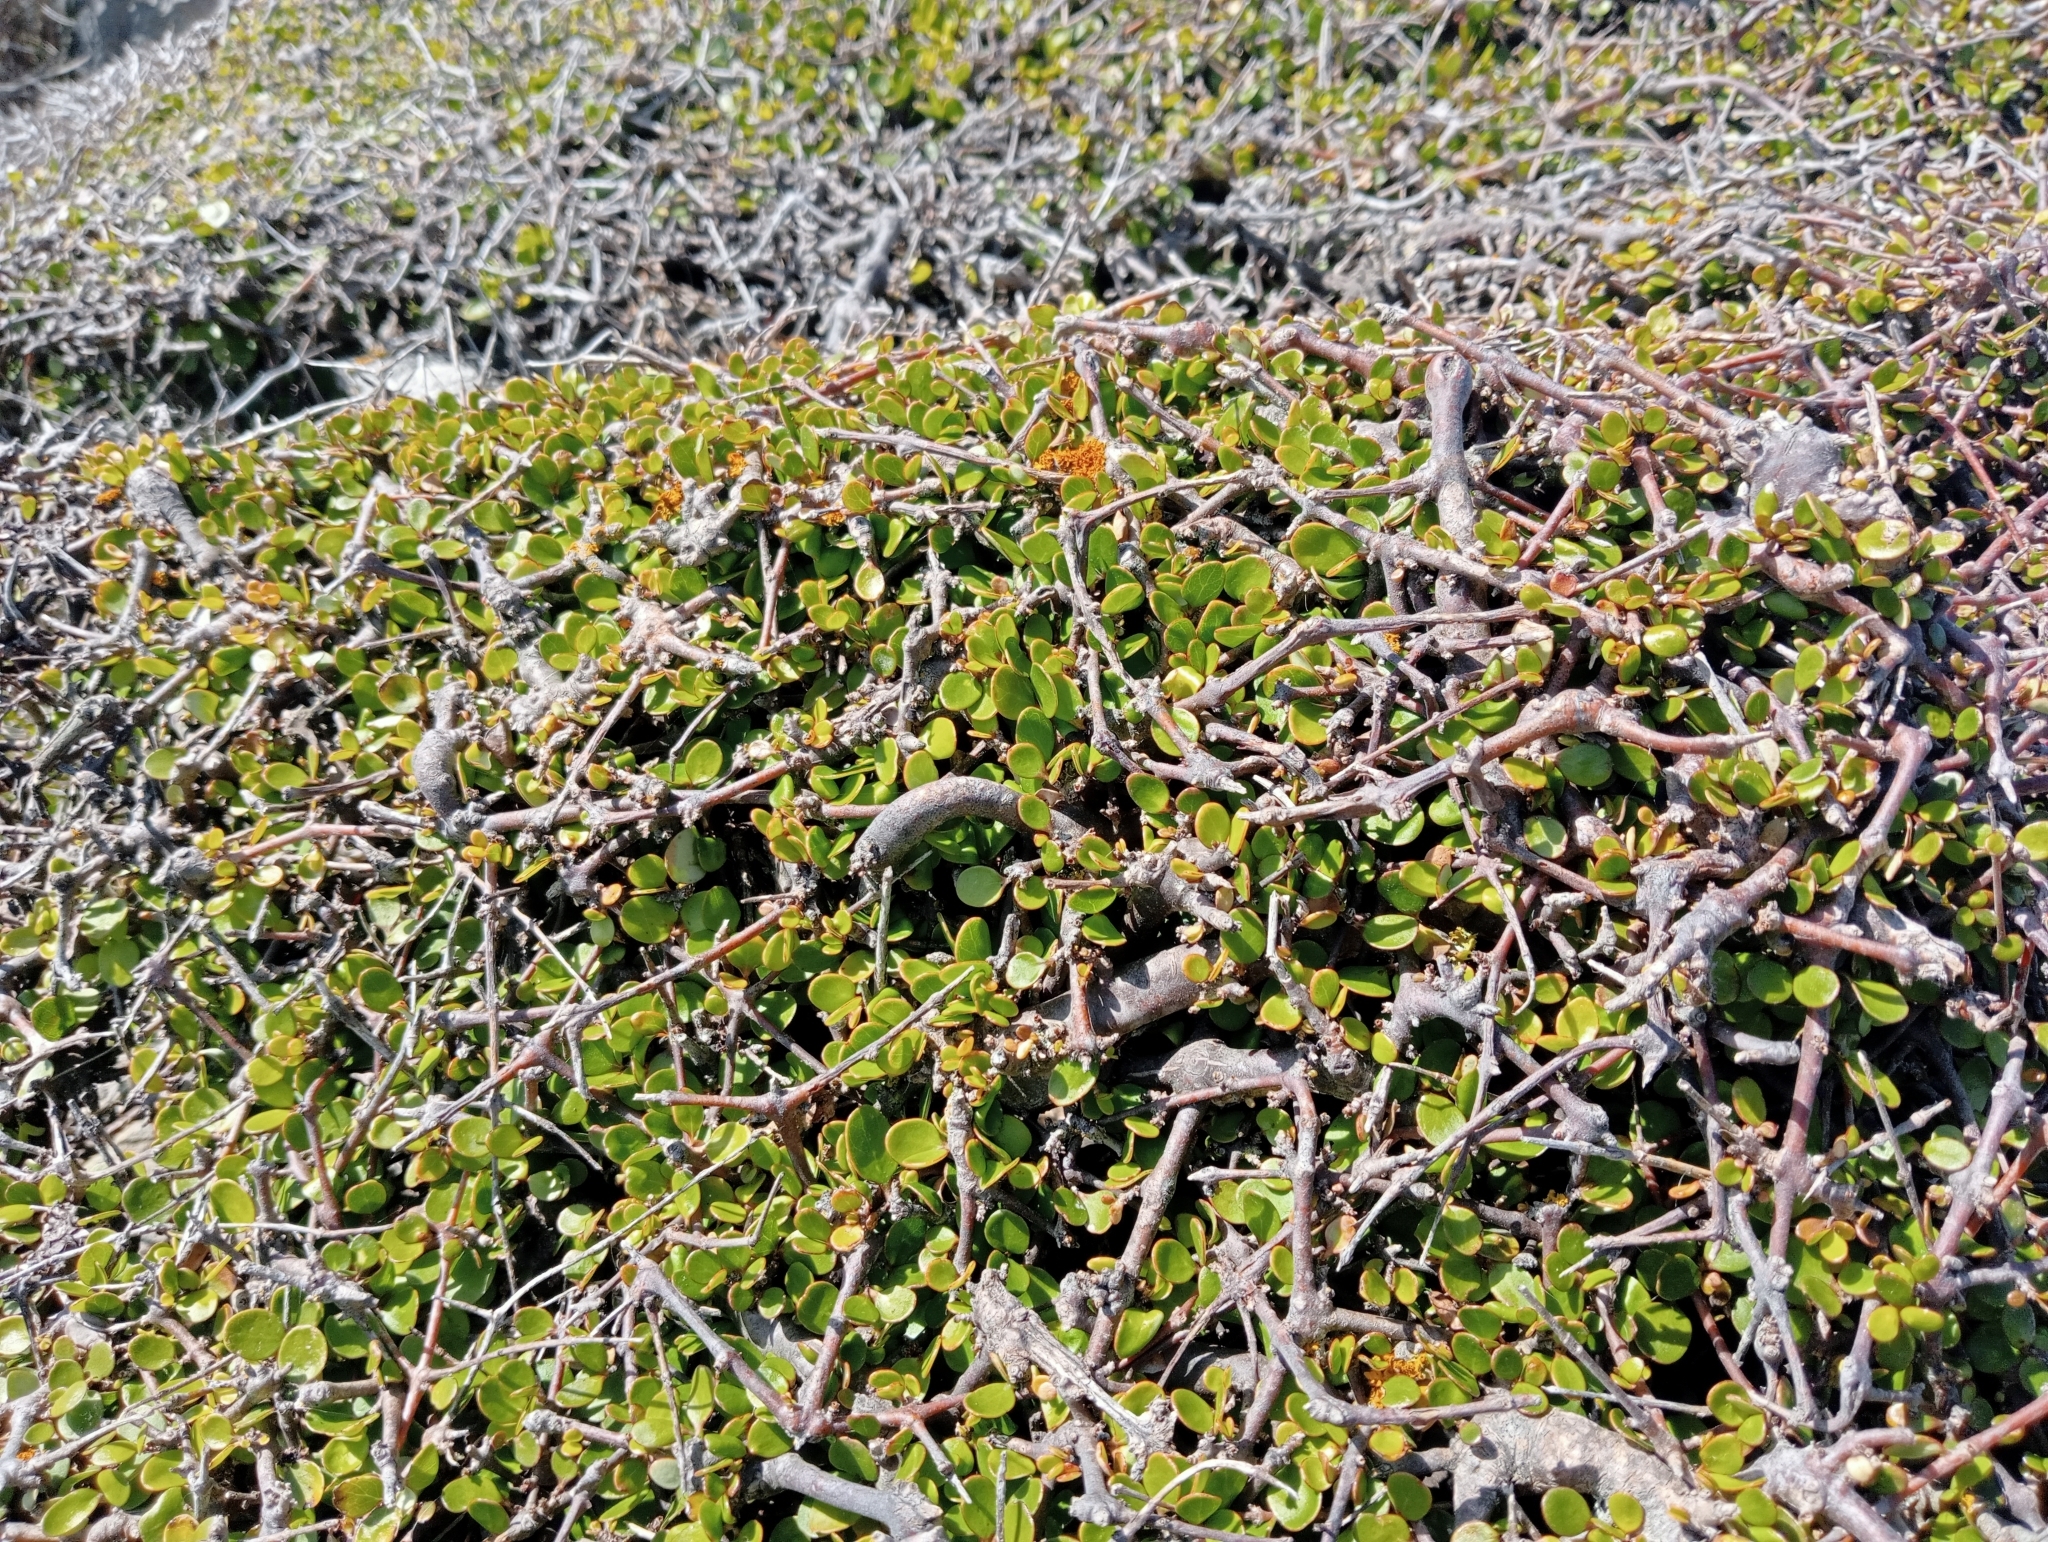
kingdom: Plantae
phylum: Tracheophyta
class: Magnoliopsida
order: Gentianales
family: Rubiaceae
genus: Coprosma
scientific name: Coprosma crassifolia
